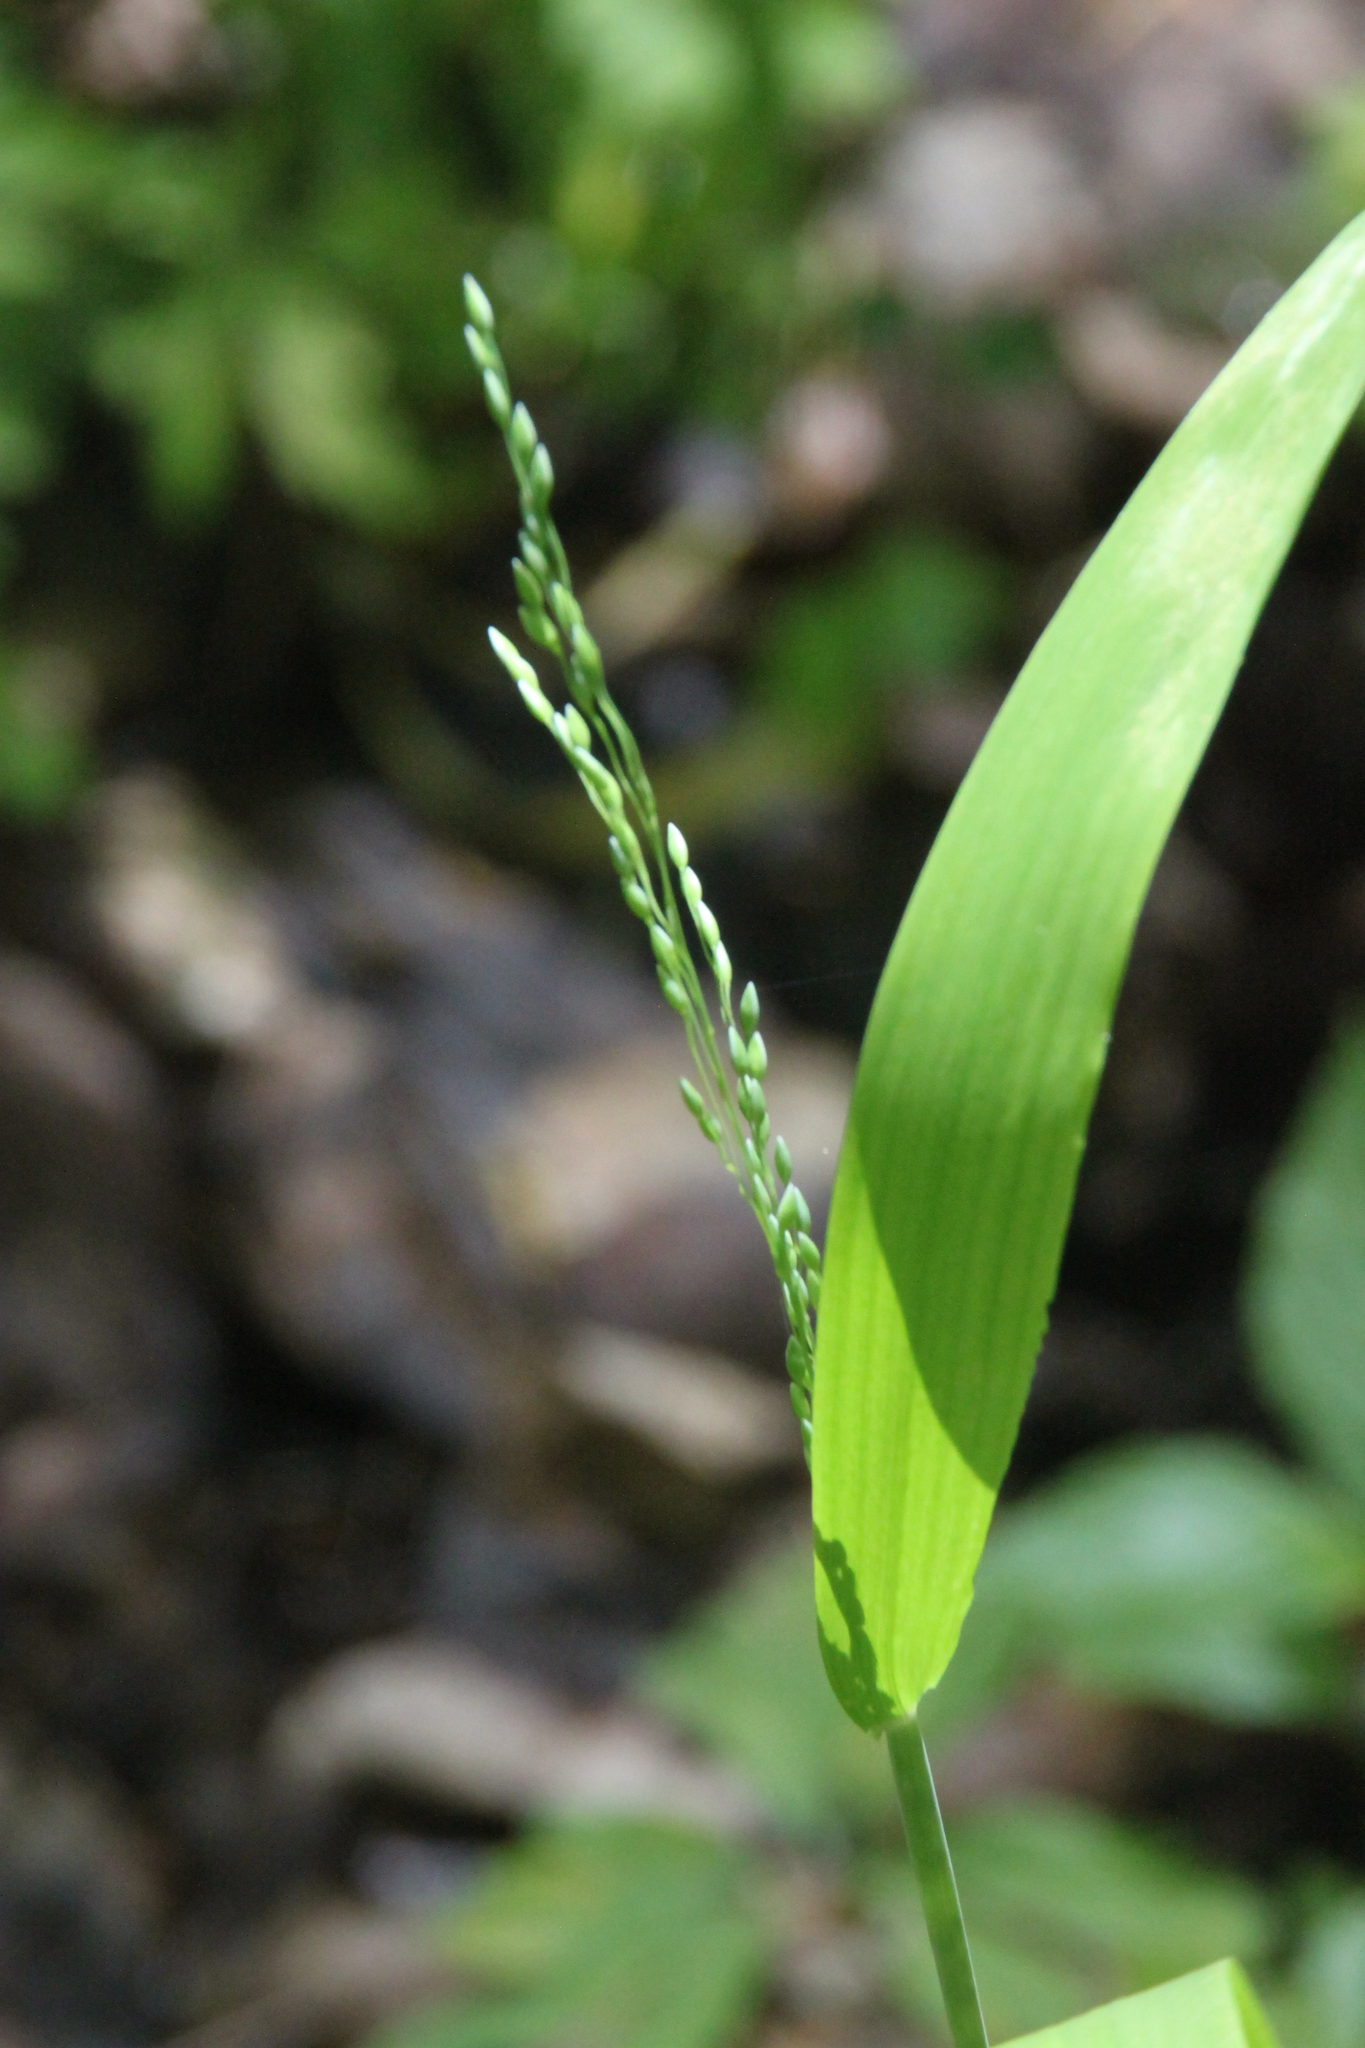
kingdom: Plantae
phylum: Tracheophyta
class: Liliopsida
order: Poales
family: Poaceae
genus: Milium
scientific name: Milium effusum
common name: Wood millet
